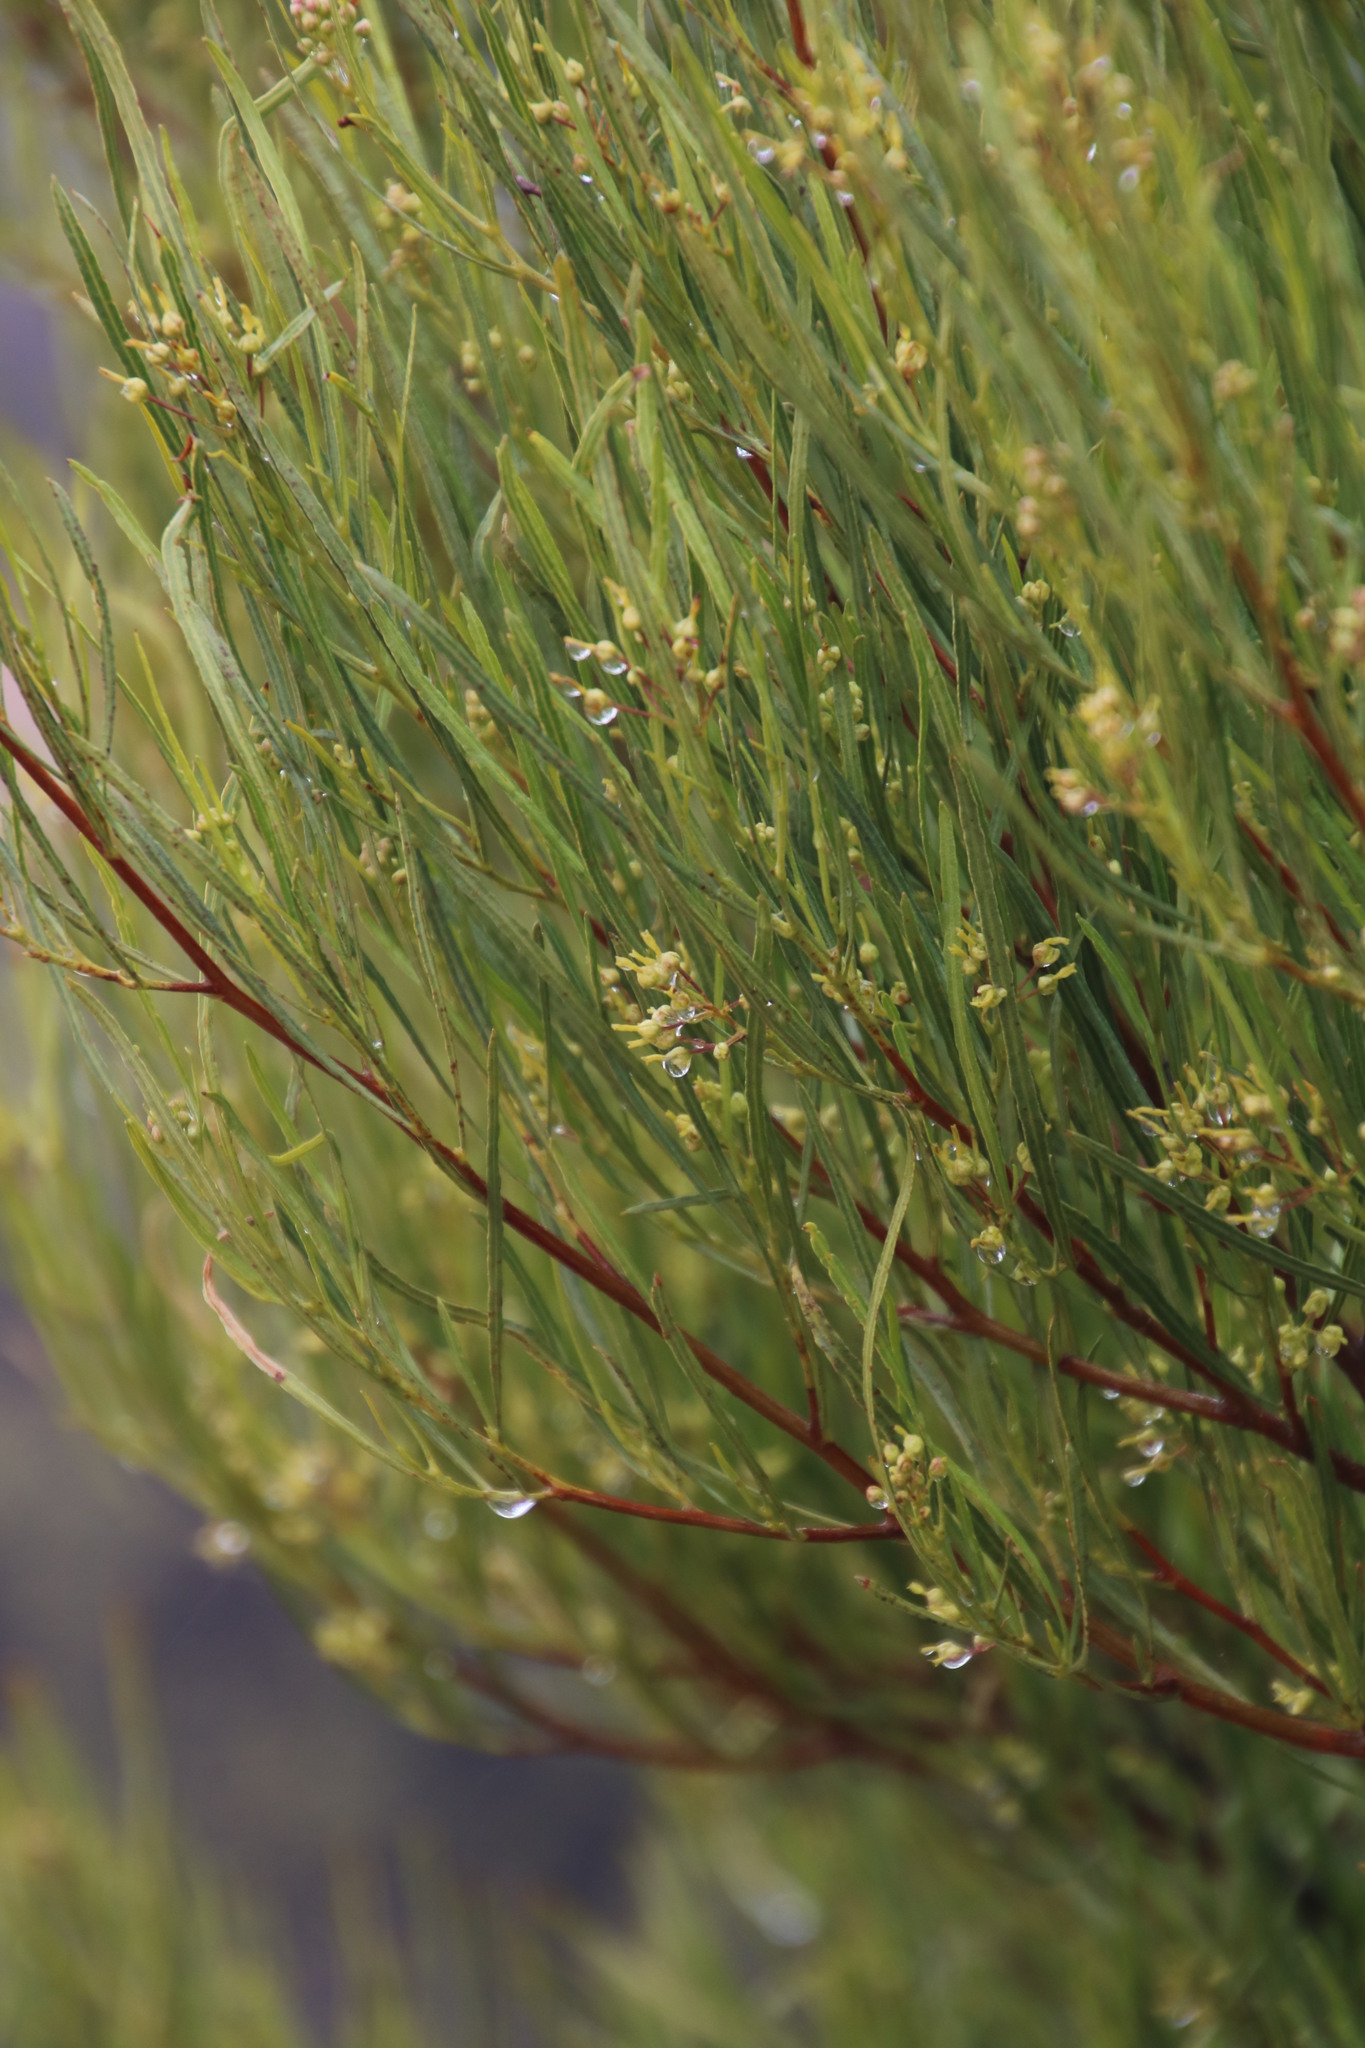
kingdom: Plantae
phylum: Tracheophyta
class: Magnoliopsida
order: Sapindales
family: Sapindaceae
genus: Dodonaea
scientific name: Dodonaea viscosa
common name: Hopbush
